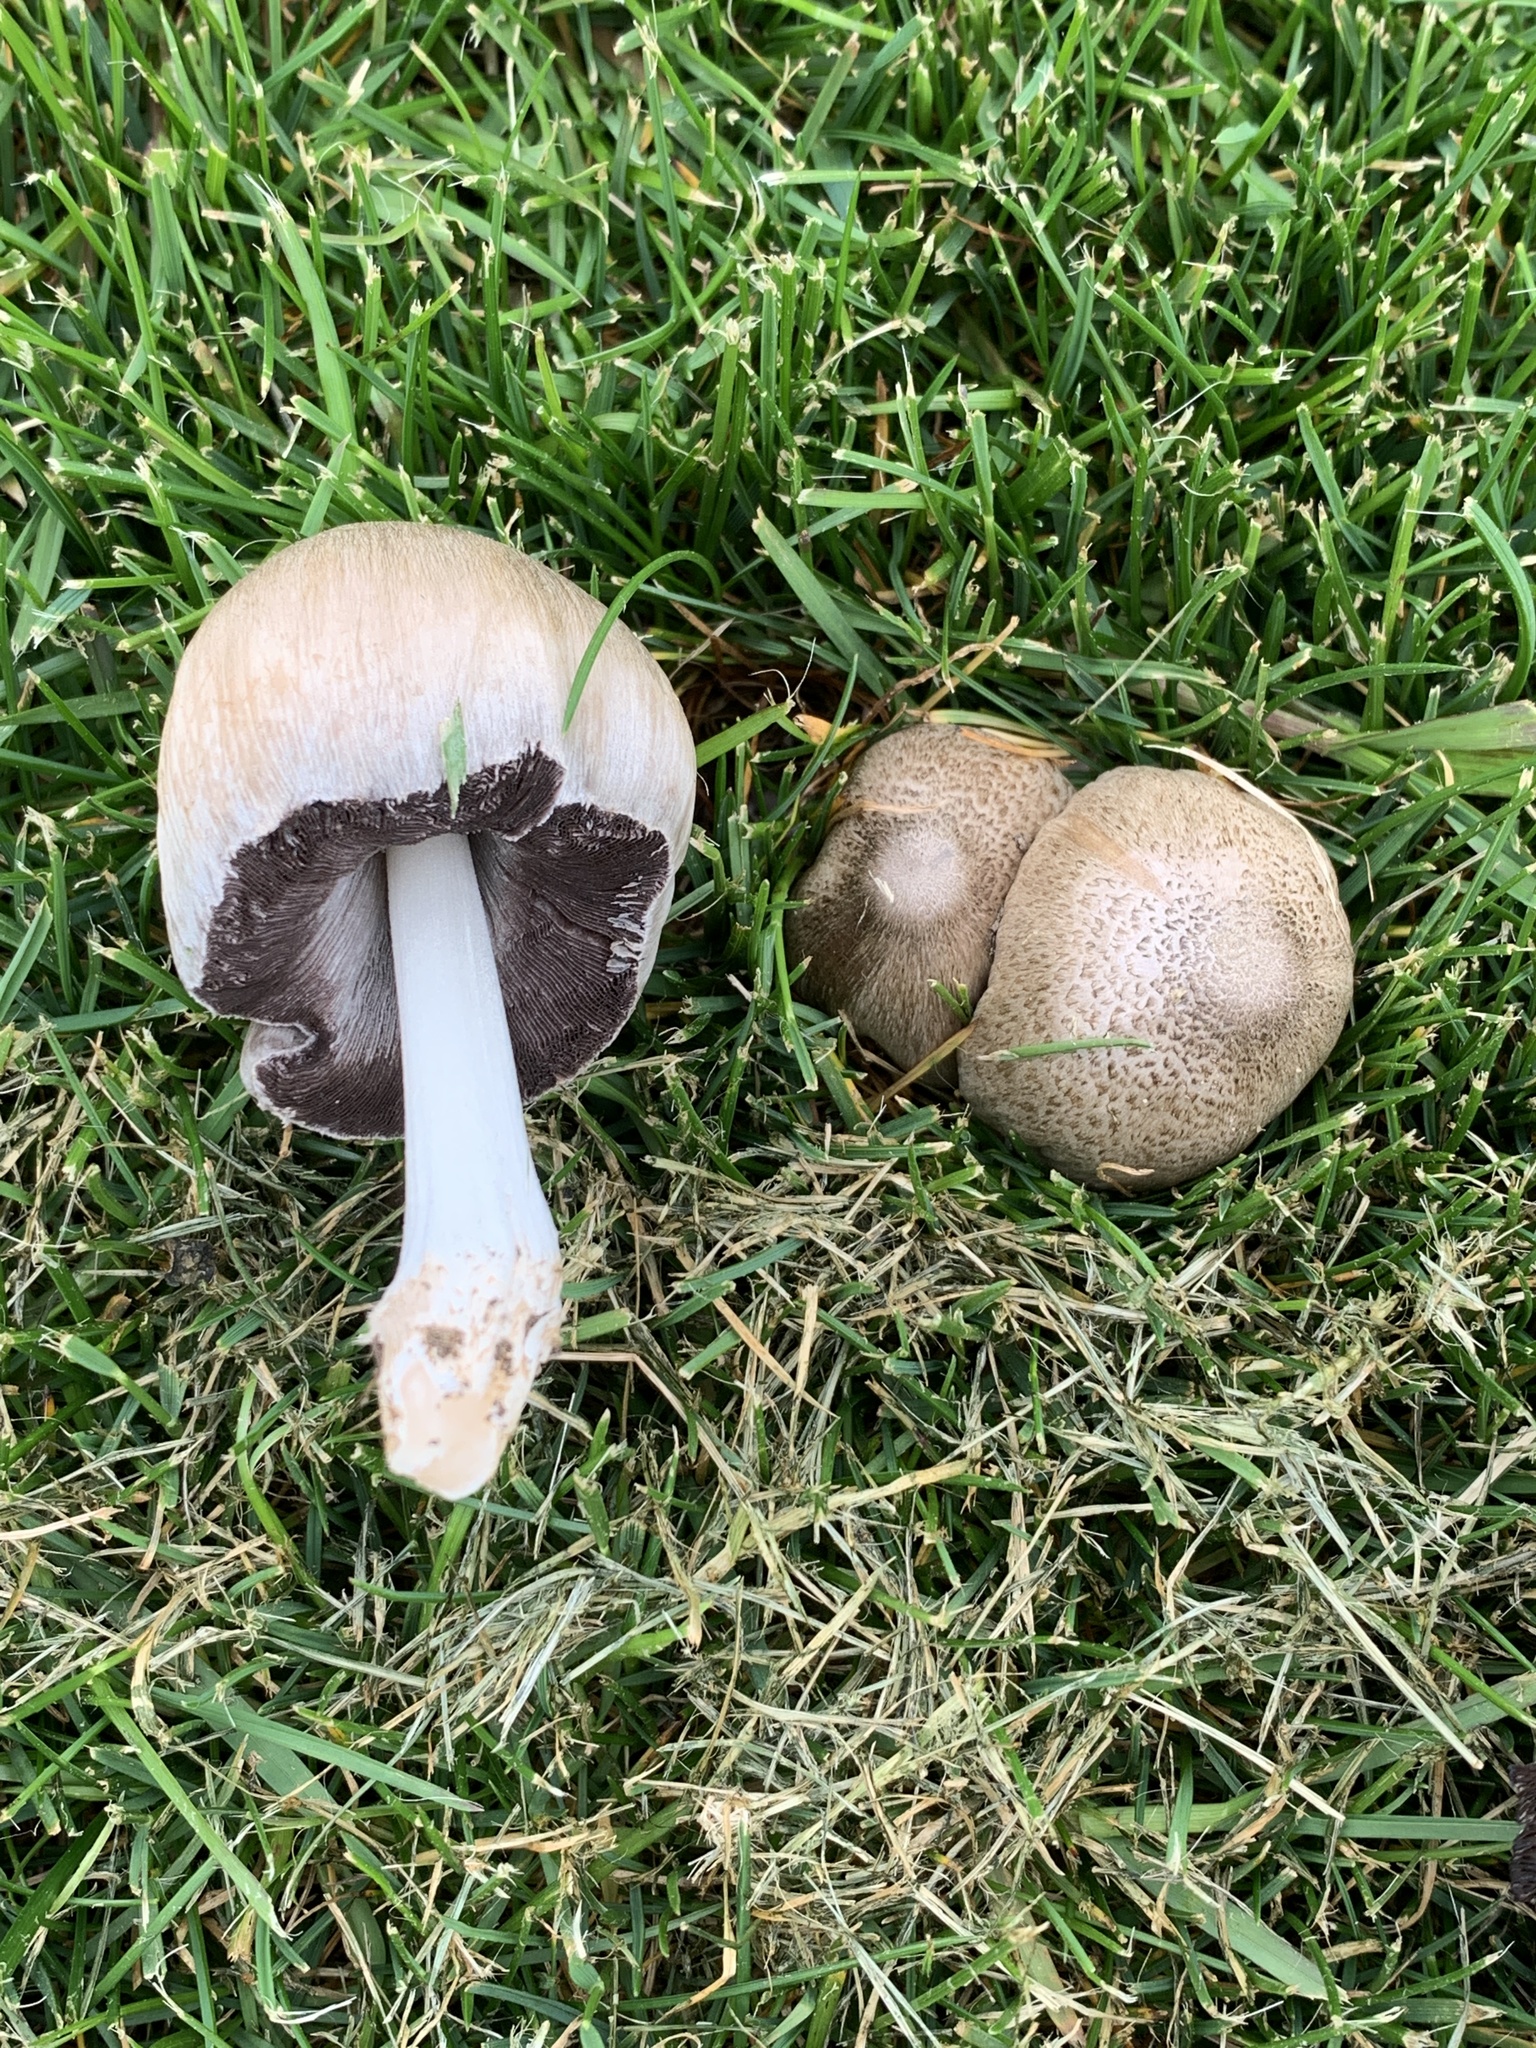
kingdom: Fungi
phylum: Basidiomycota
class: Agaricomycetes
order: Agaricales
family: Psathyrellaceae
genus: Coprinopsis
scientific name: Coprinopsis atramentaria
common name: Common ink-cap
